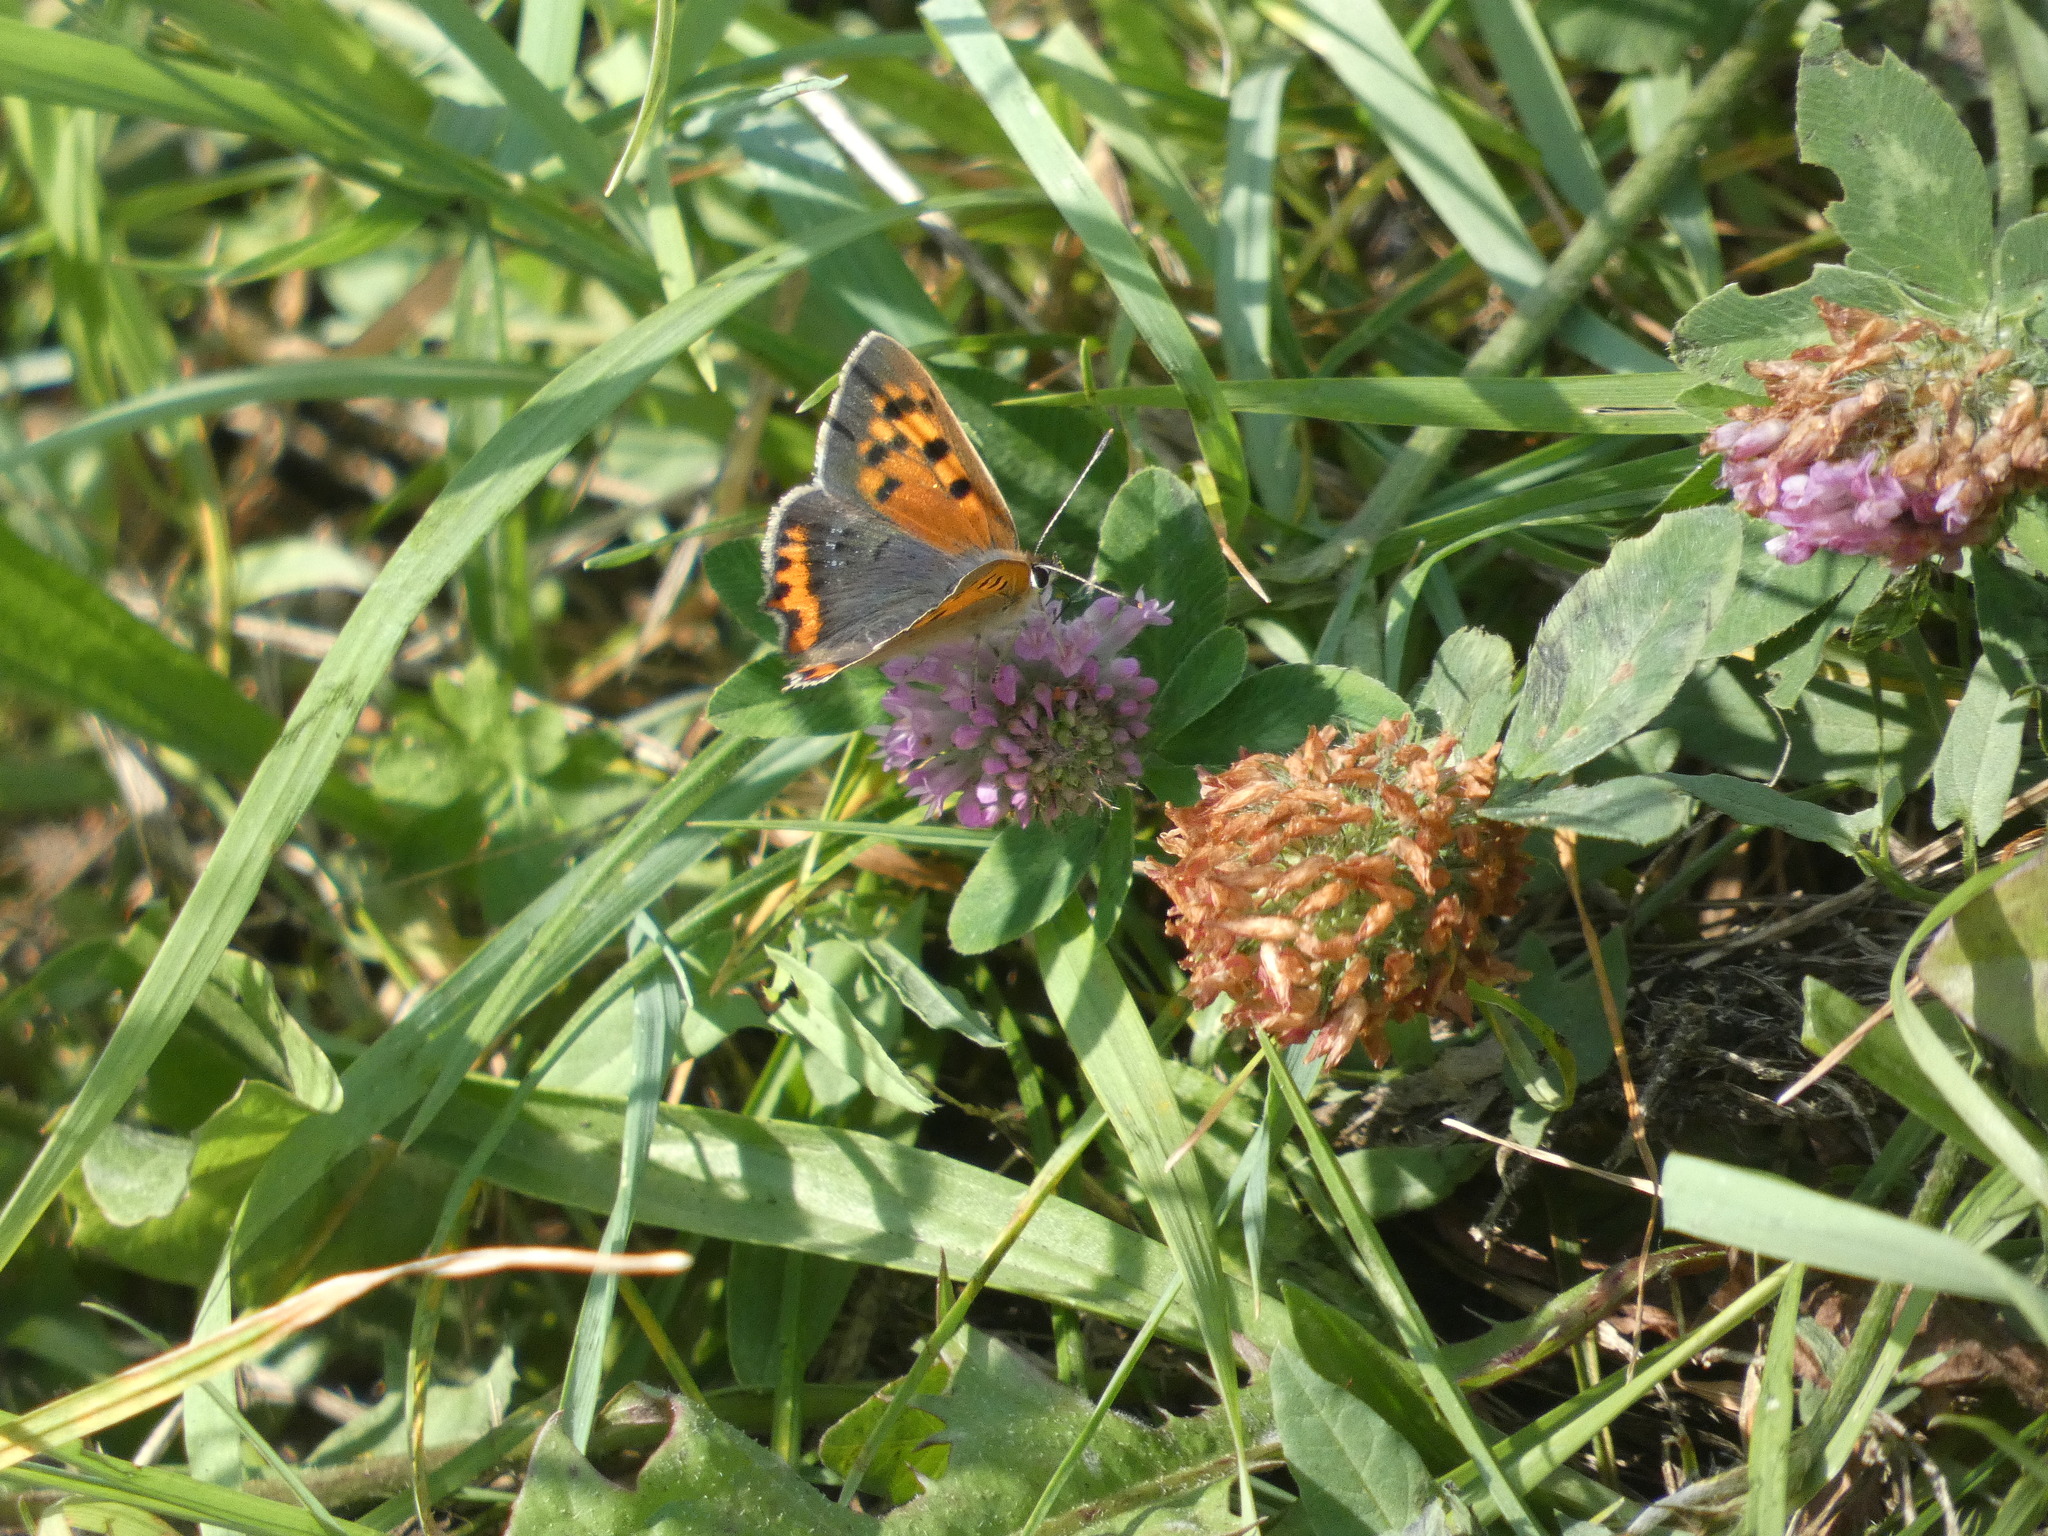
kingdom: Animalia
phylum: Arthropoda
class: Insecta
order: Lepidoptera
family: Lycaenidae
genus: Lycaena
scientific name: Lycaena phlaeas
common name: Small copper
